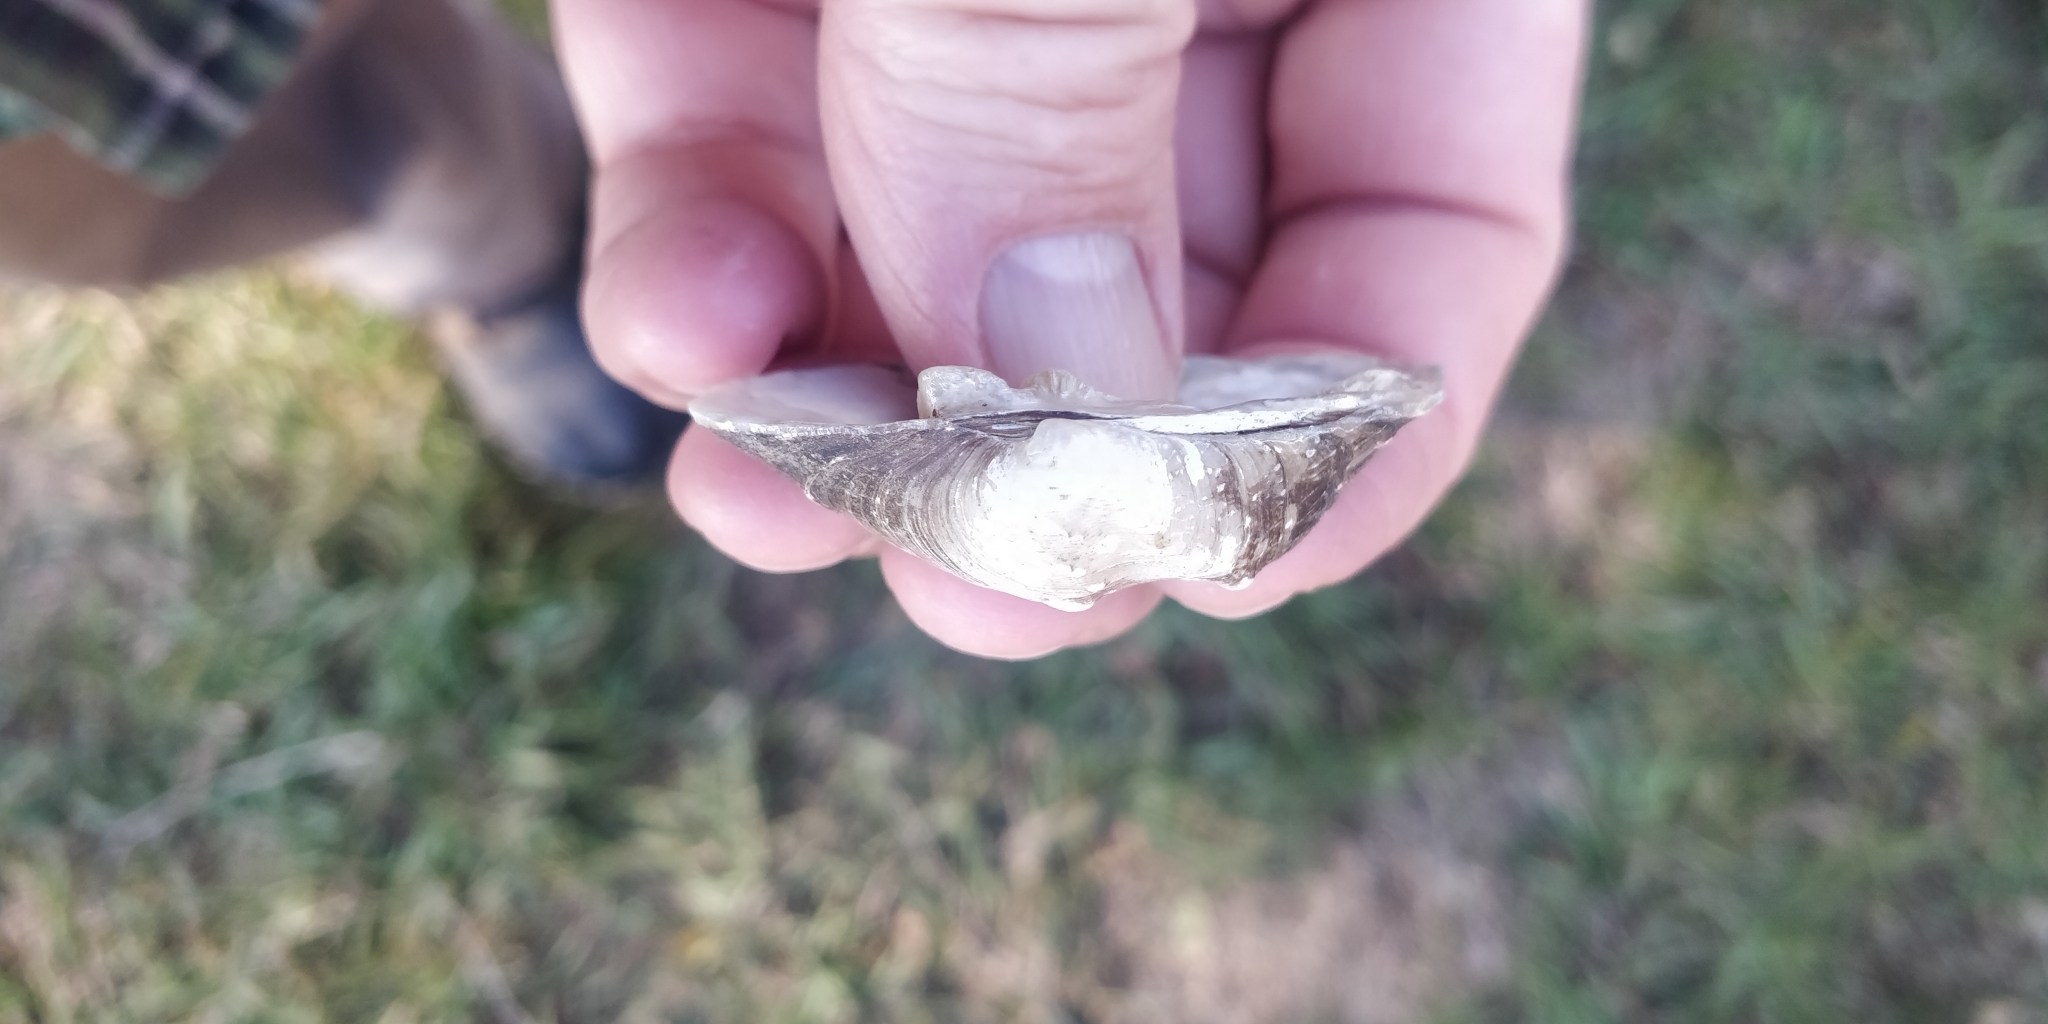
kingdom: Animalia
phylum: Mollusca
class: Bivalvia
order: Unionida
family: Unionidae
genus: Quadrula
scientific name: Quadrula quadrula
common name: Mapleleaf
